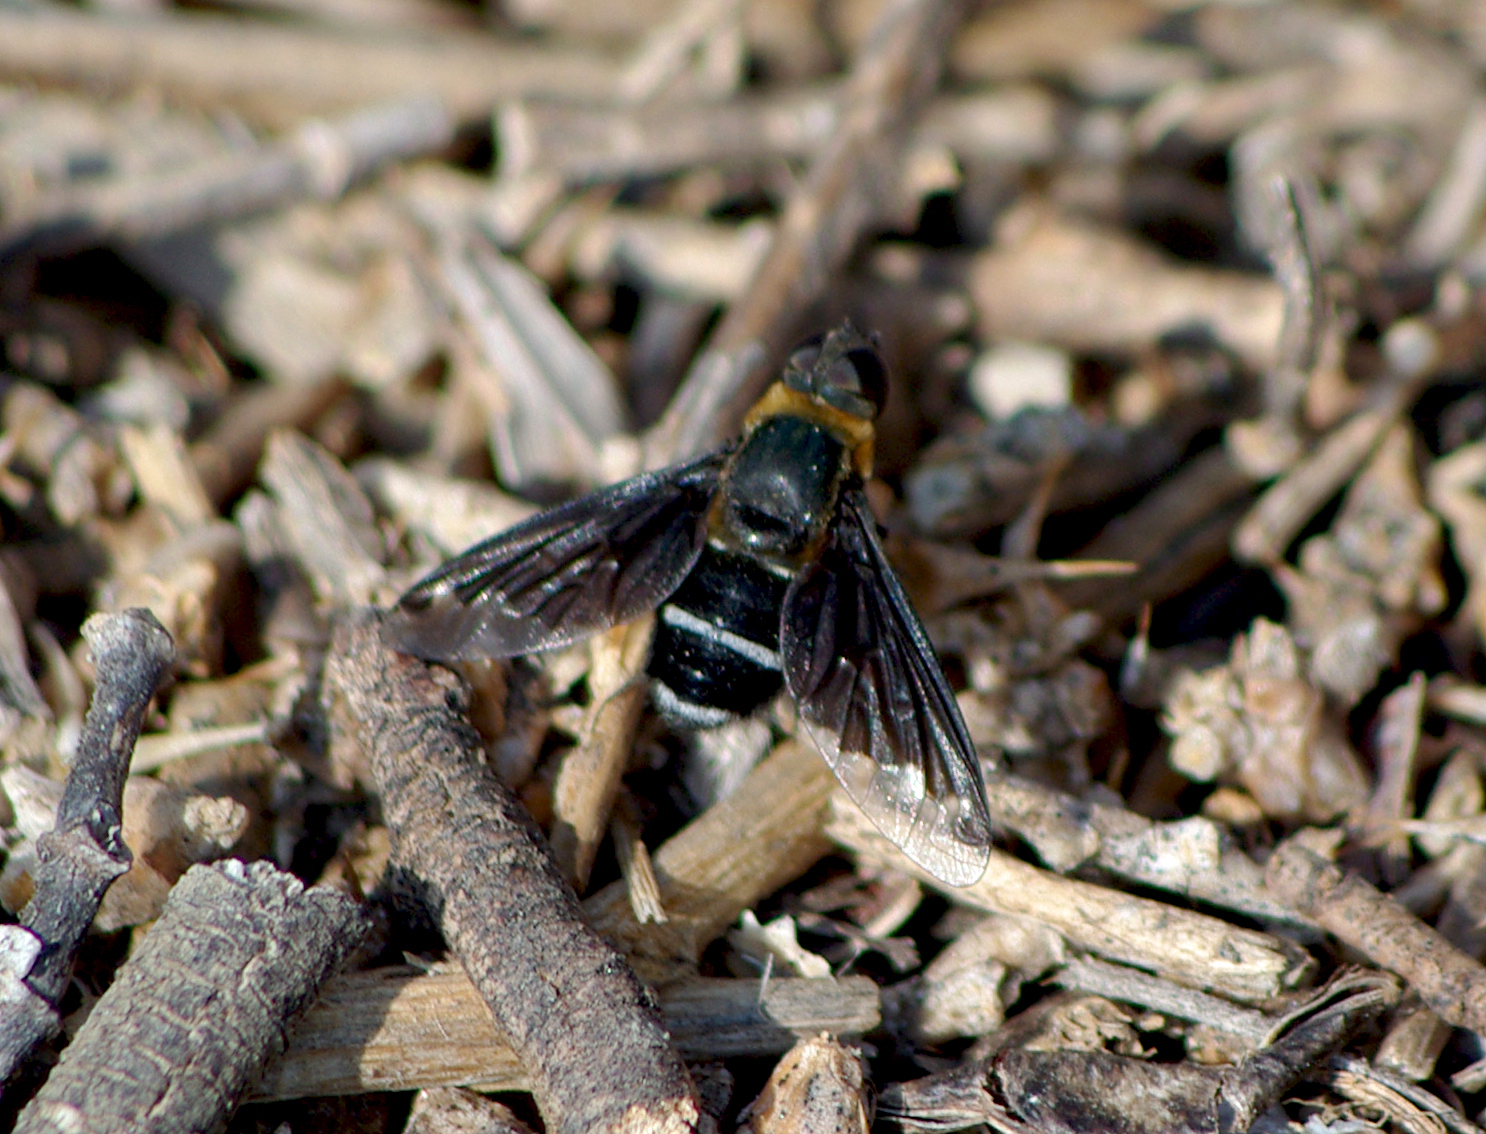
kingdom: Animalia
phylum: Arthropoda
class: Insecta
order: Diptera
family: Bombyliidae
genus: Hemipenthes
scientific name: Hemipenthes velutina
